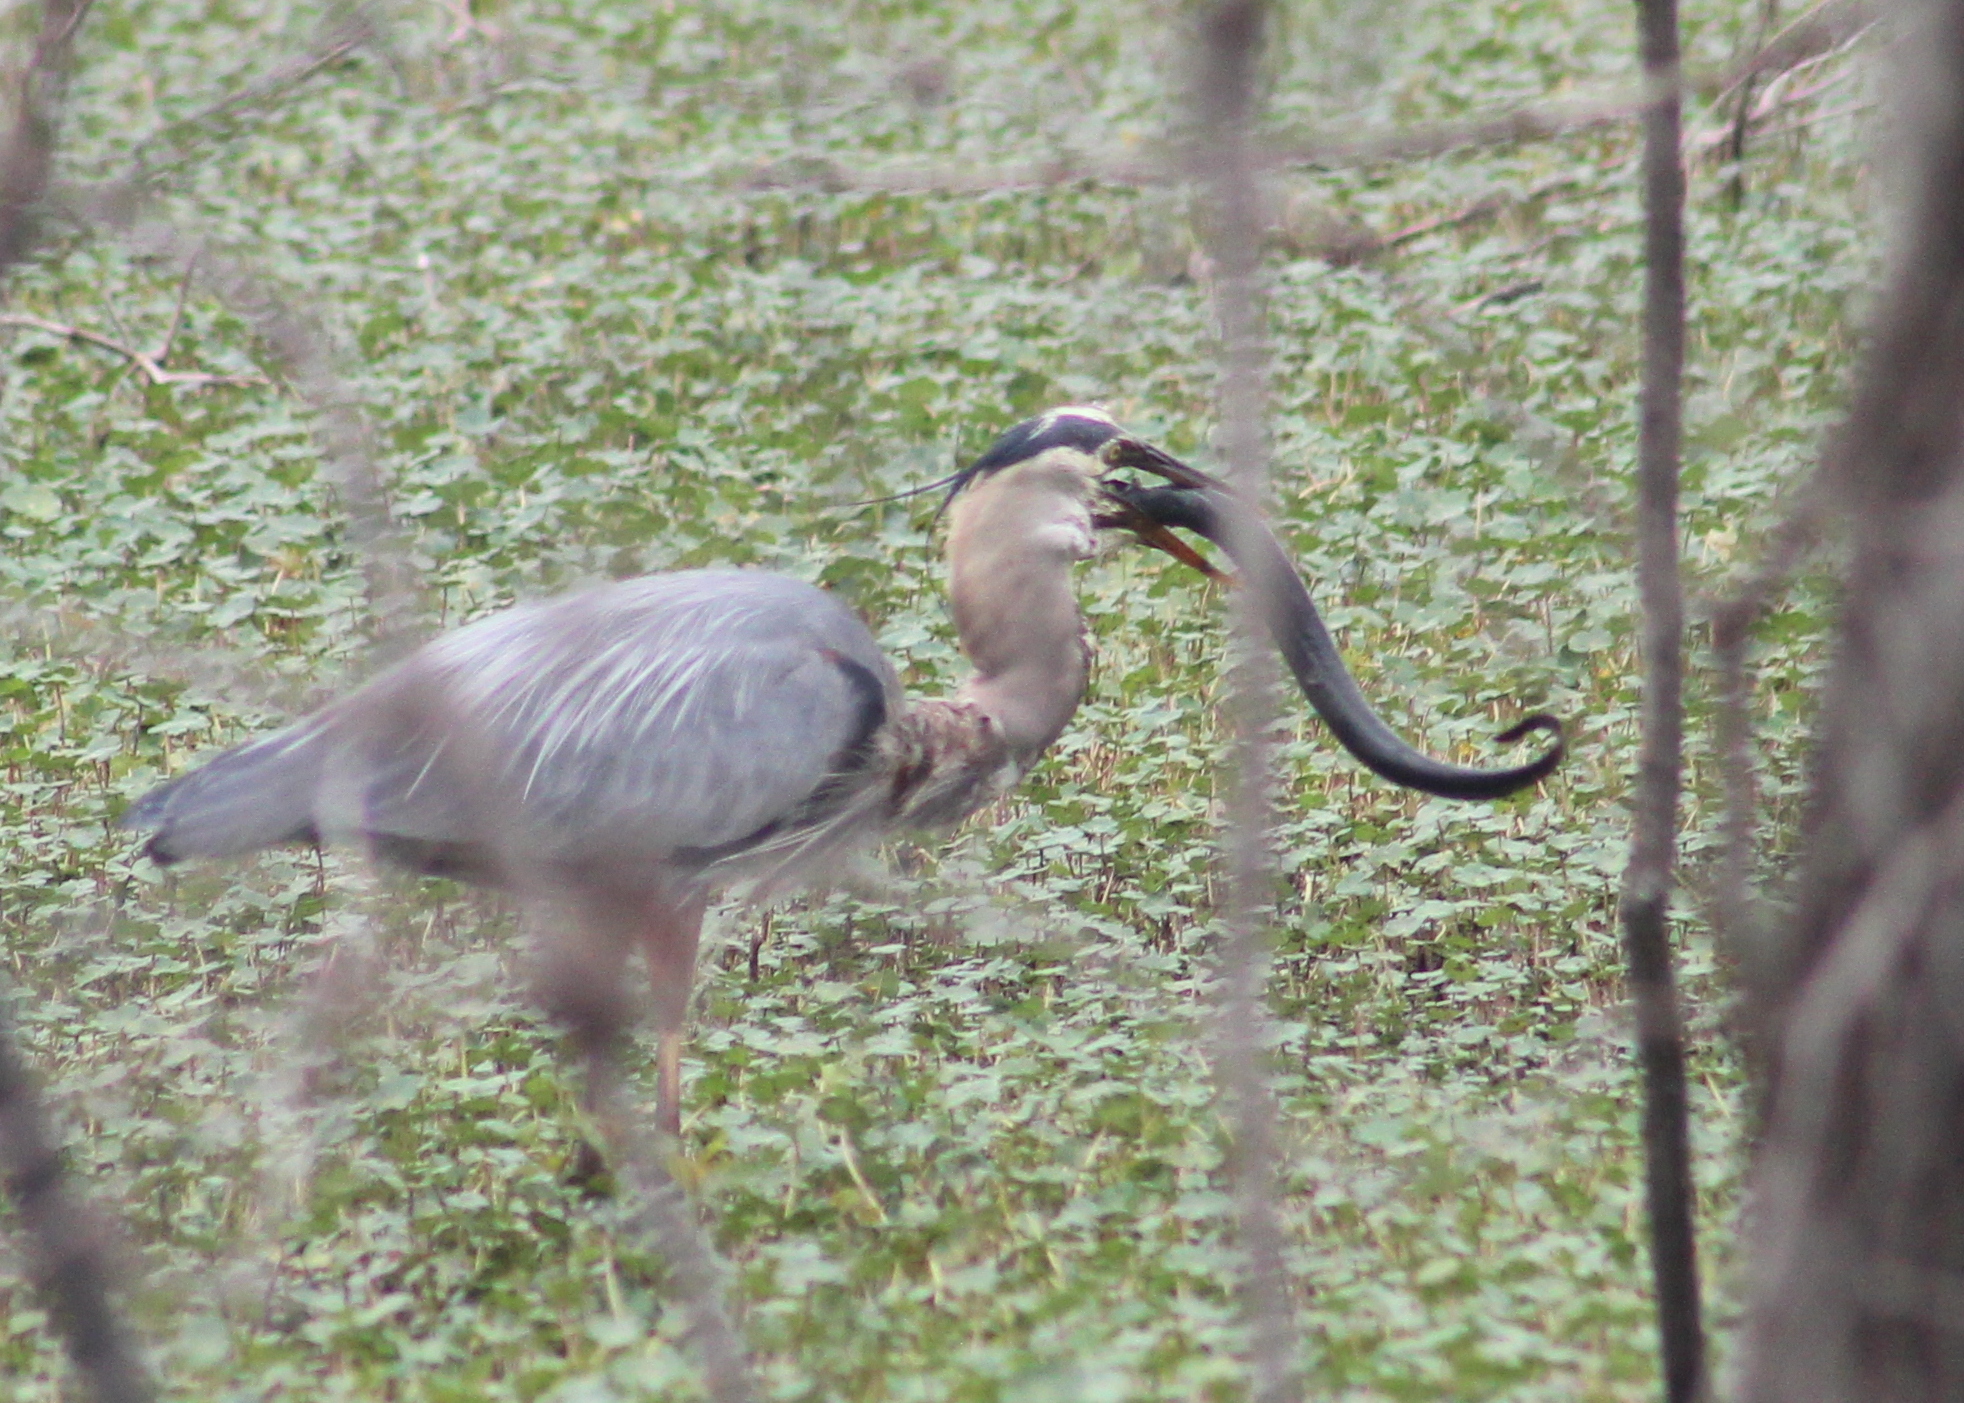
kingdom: Animalia
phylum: Chordata
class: Amphibia
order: Caudata
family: Sirenidae
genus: Siren
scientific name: Siren intermedia
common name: Lesser siren
